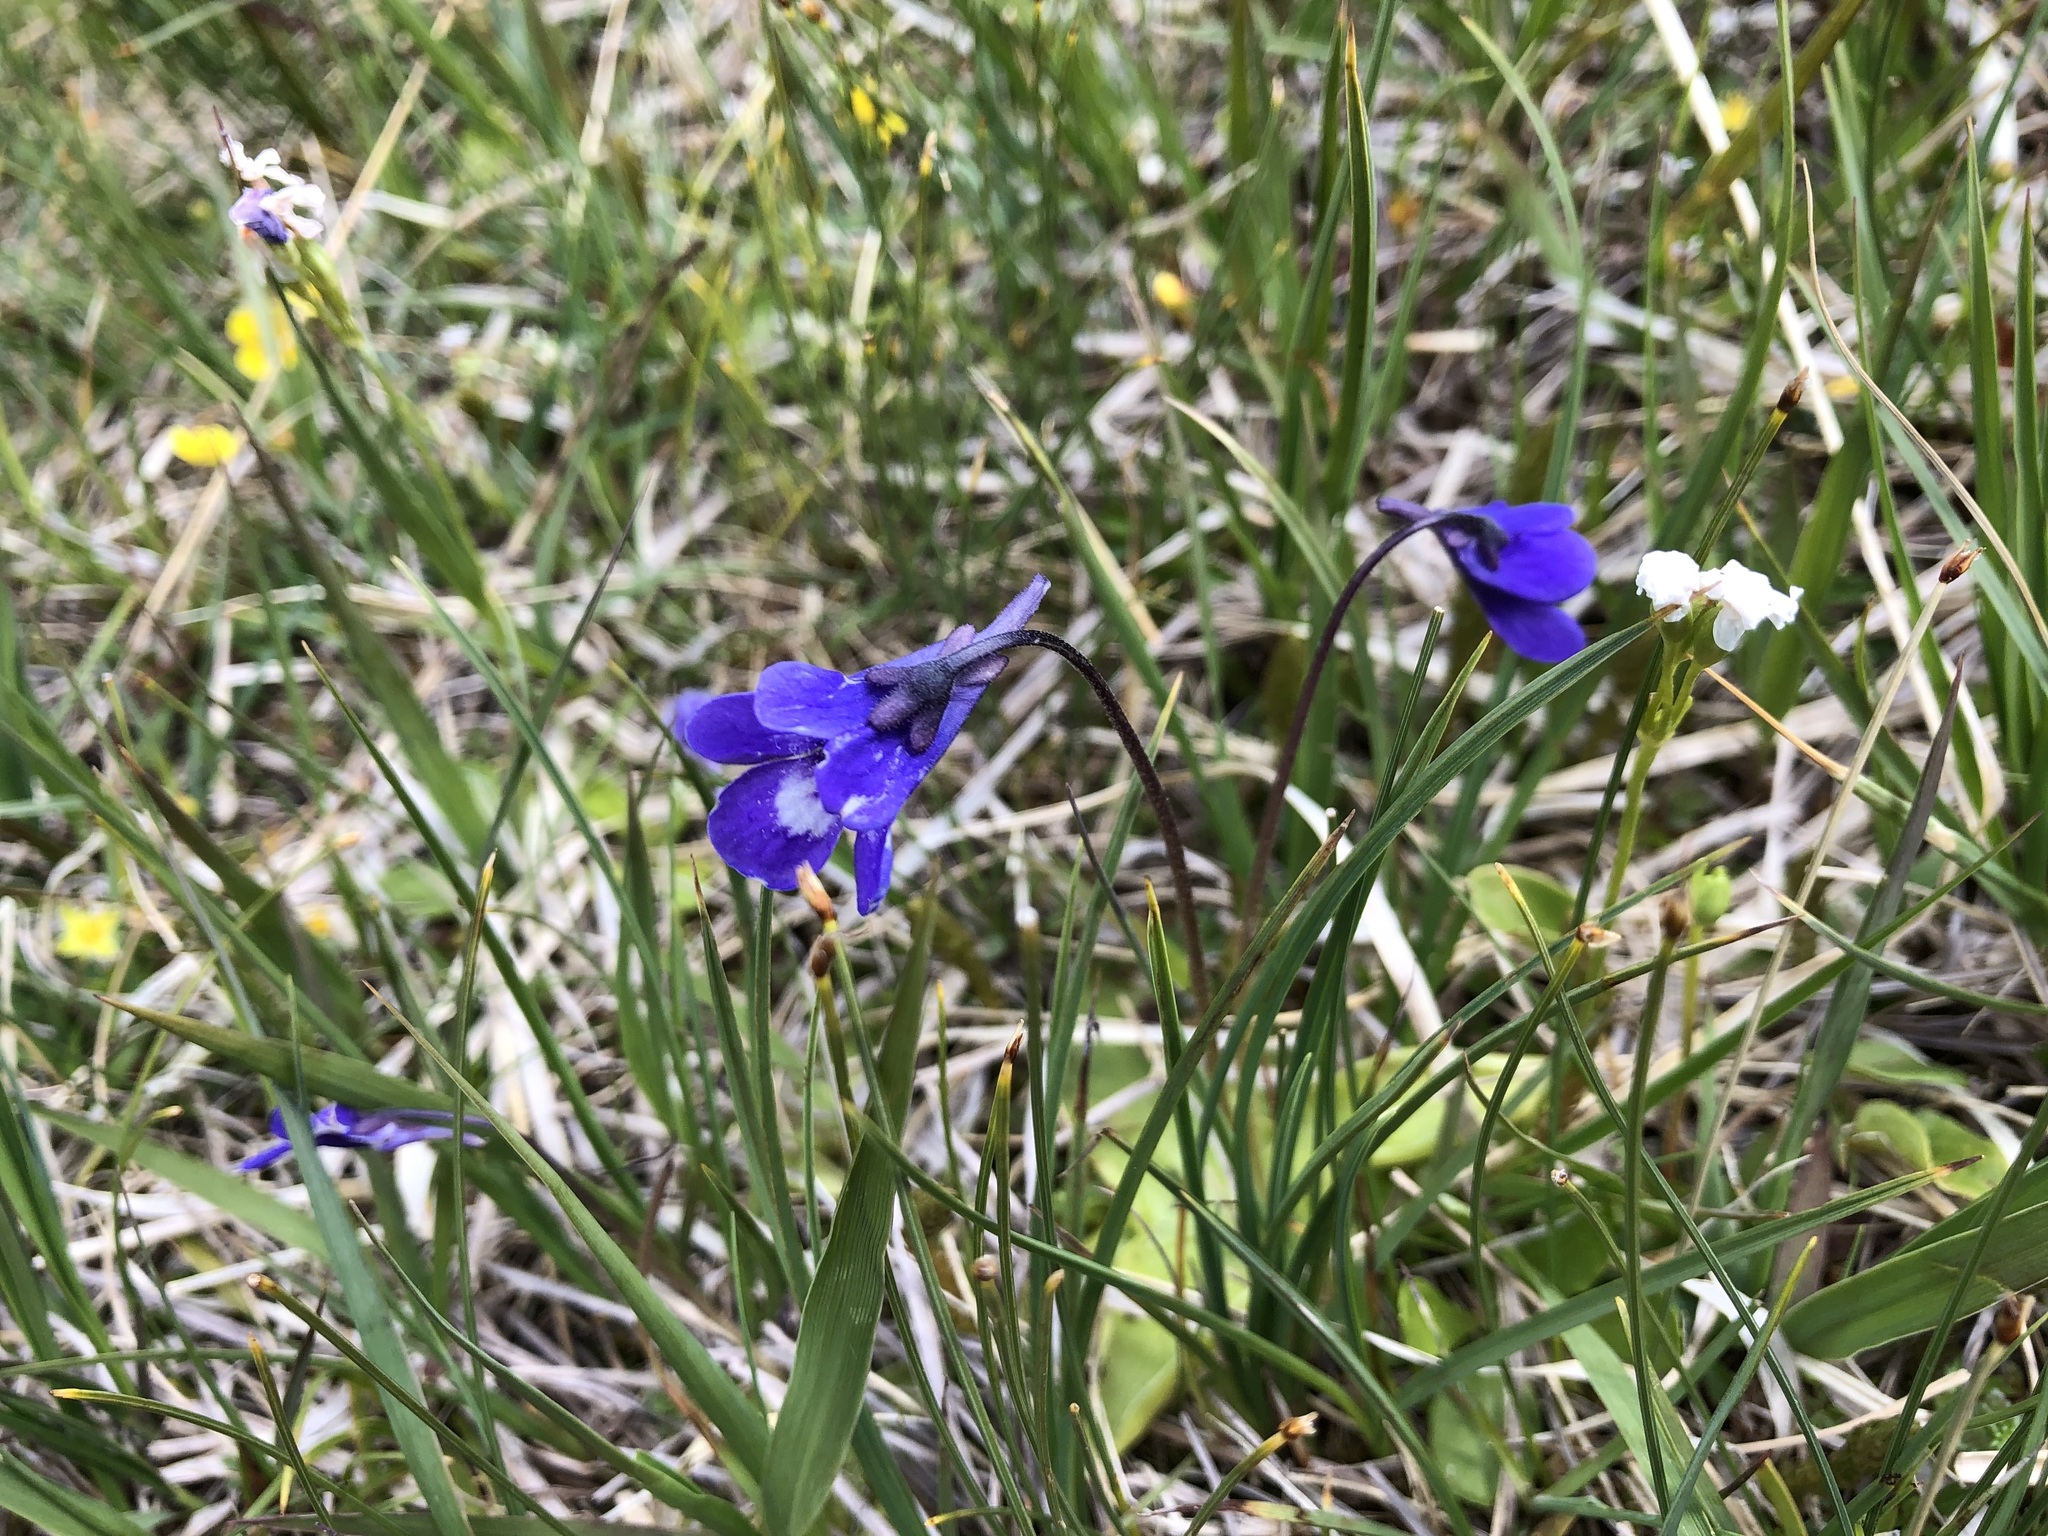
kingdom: Plantae
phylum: Tracheophyta
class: Magnoliopsida
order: Lamiales
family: Lentibulariaceae
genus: Pinguicula
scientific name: Pinguicula leptoceras
